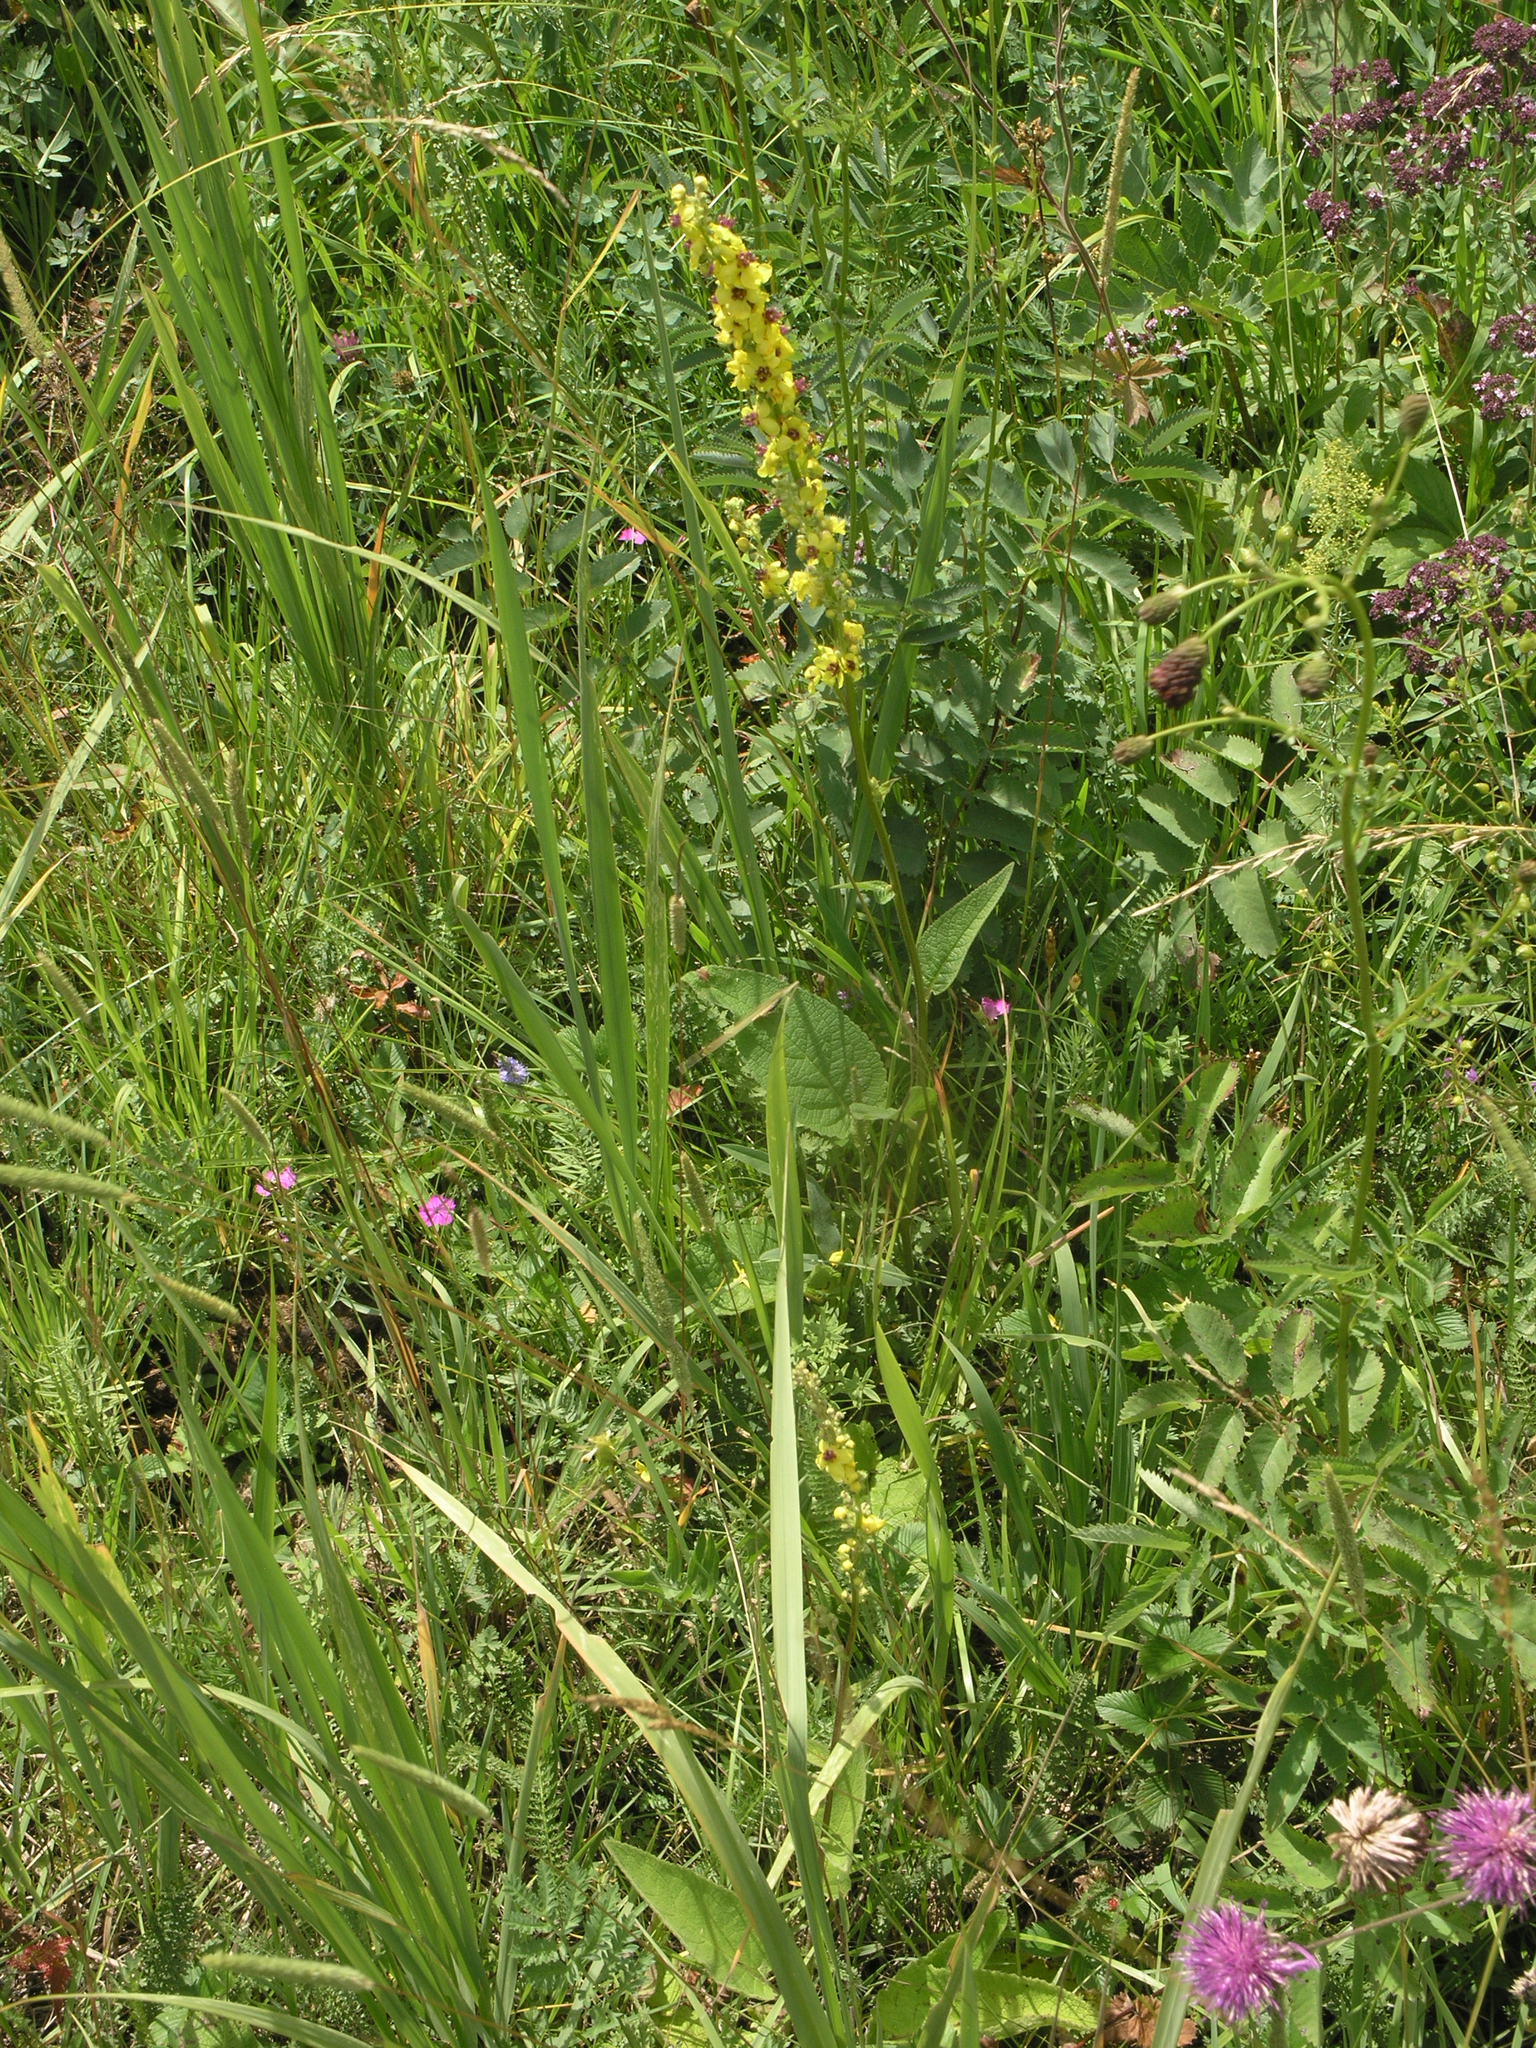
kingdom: Plantae
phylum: Tracheophyta
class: Magnoliopsida
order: Lamiales
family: Scrophulariaceae
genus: Verbascum
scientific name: Verbascum nigrum
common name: Dark mullein
